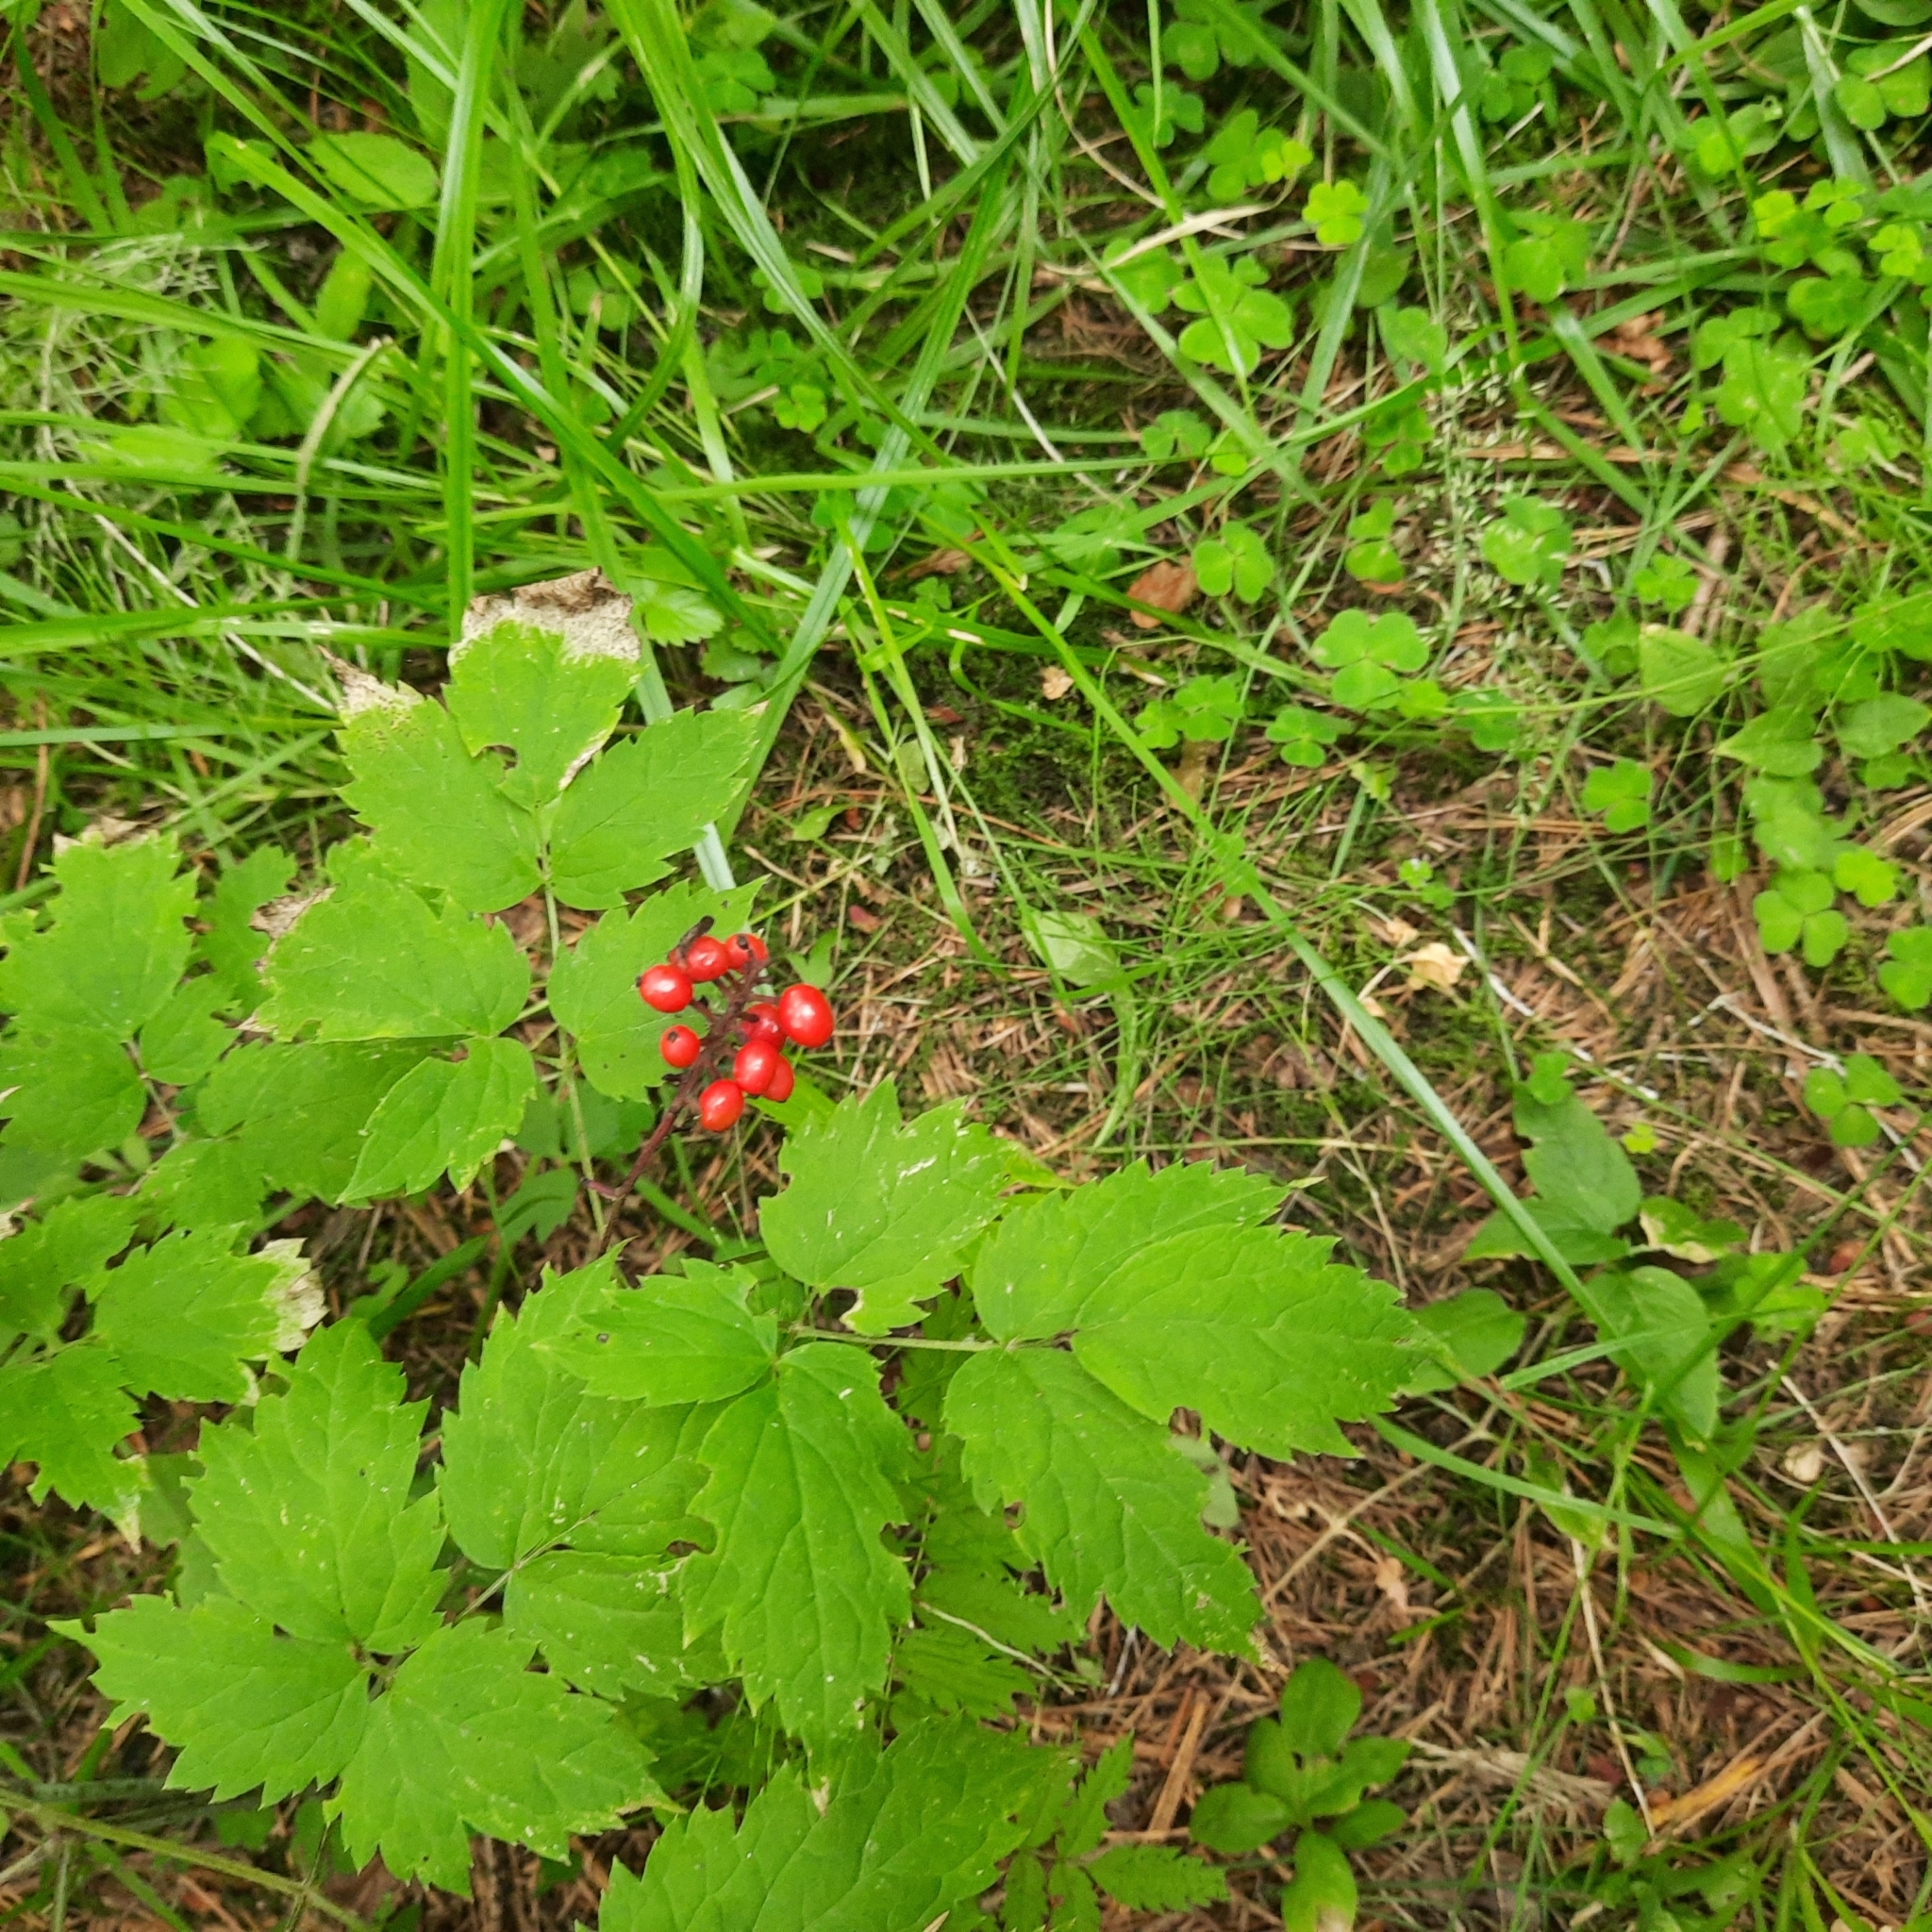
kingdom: Plantae
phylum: Tracheophyta
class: Magnoliopsida
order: Ranunculales
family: Ranunculaceae
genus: Actaea
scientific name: Actaea erythrocarpa
